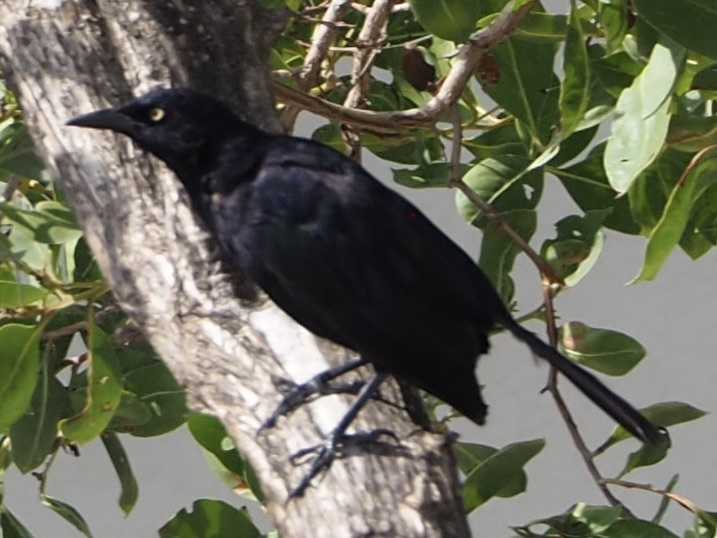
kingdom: Animalia
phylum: Chordata
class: Aves
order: Passeriformes
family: Icteridae
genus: Quiscalus
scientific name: Quiscalus lugubris
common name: Carib grackle
